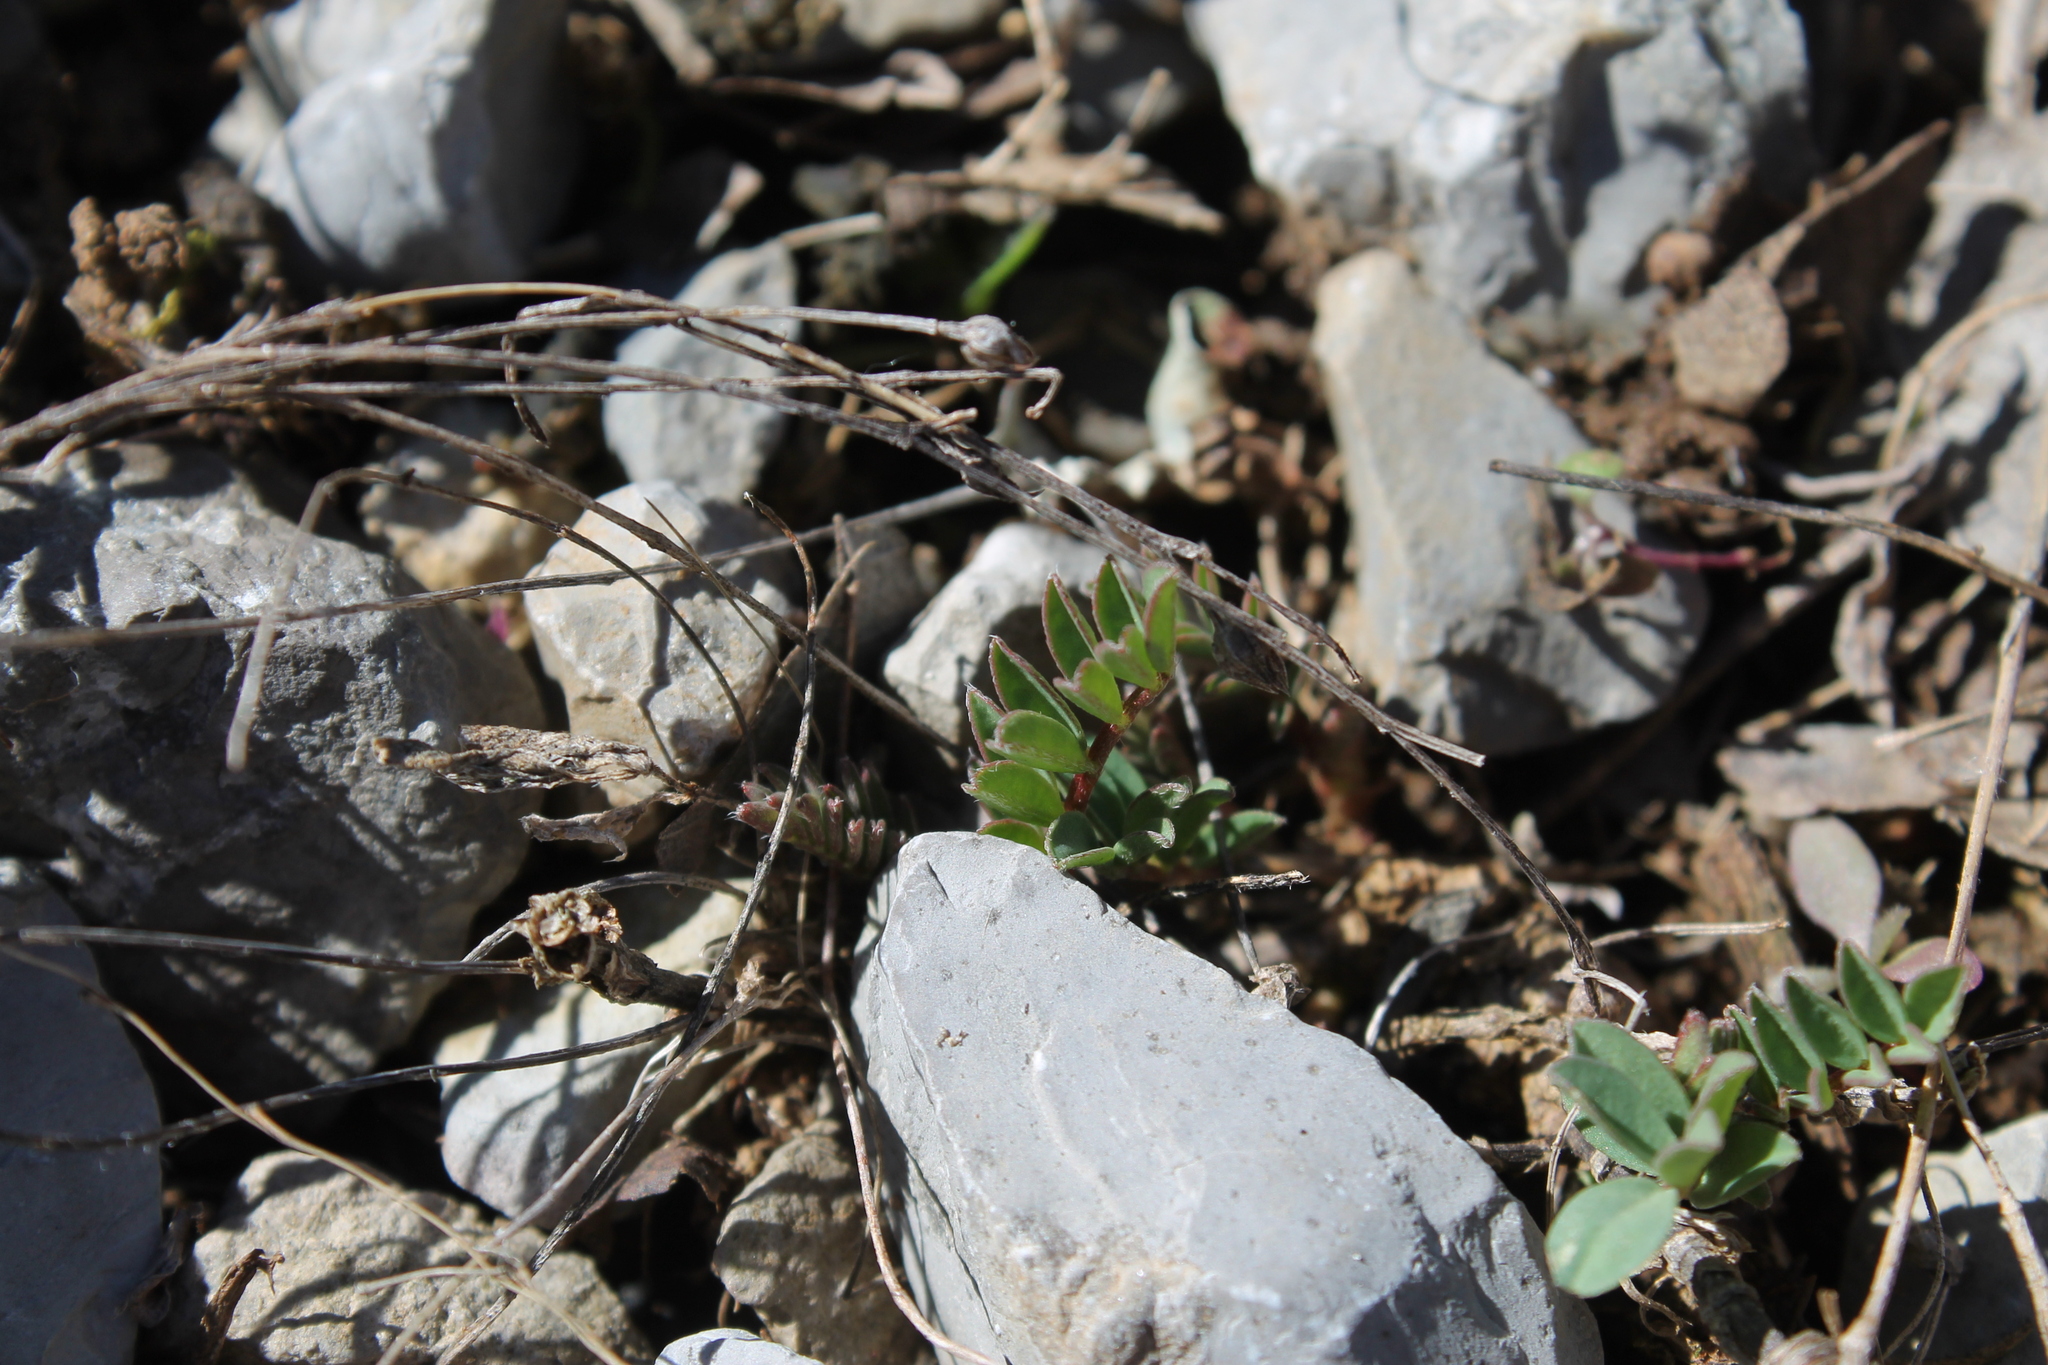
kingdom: Plantae
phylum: Tracheophyta
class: Magnoliopsida
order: Fabales
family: Fabaceae
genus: Astragalus
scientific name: Astragalus bibullatus
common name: Pyne's ground-plum
